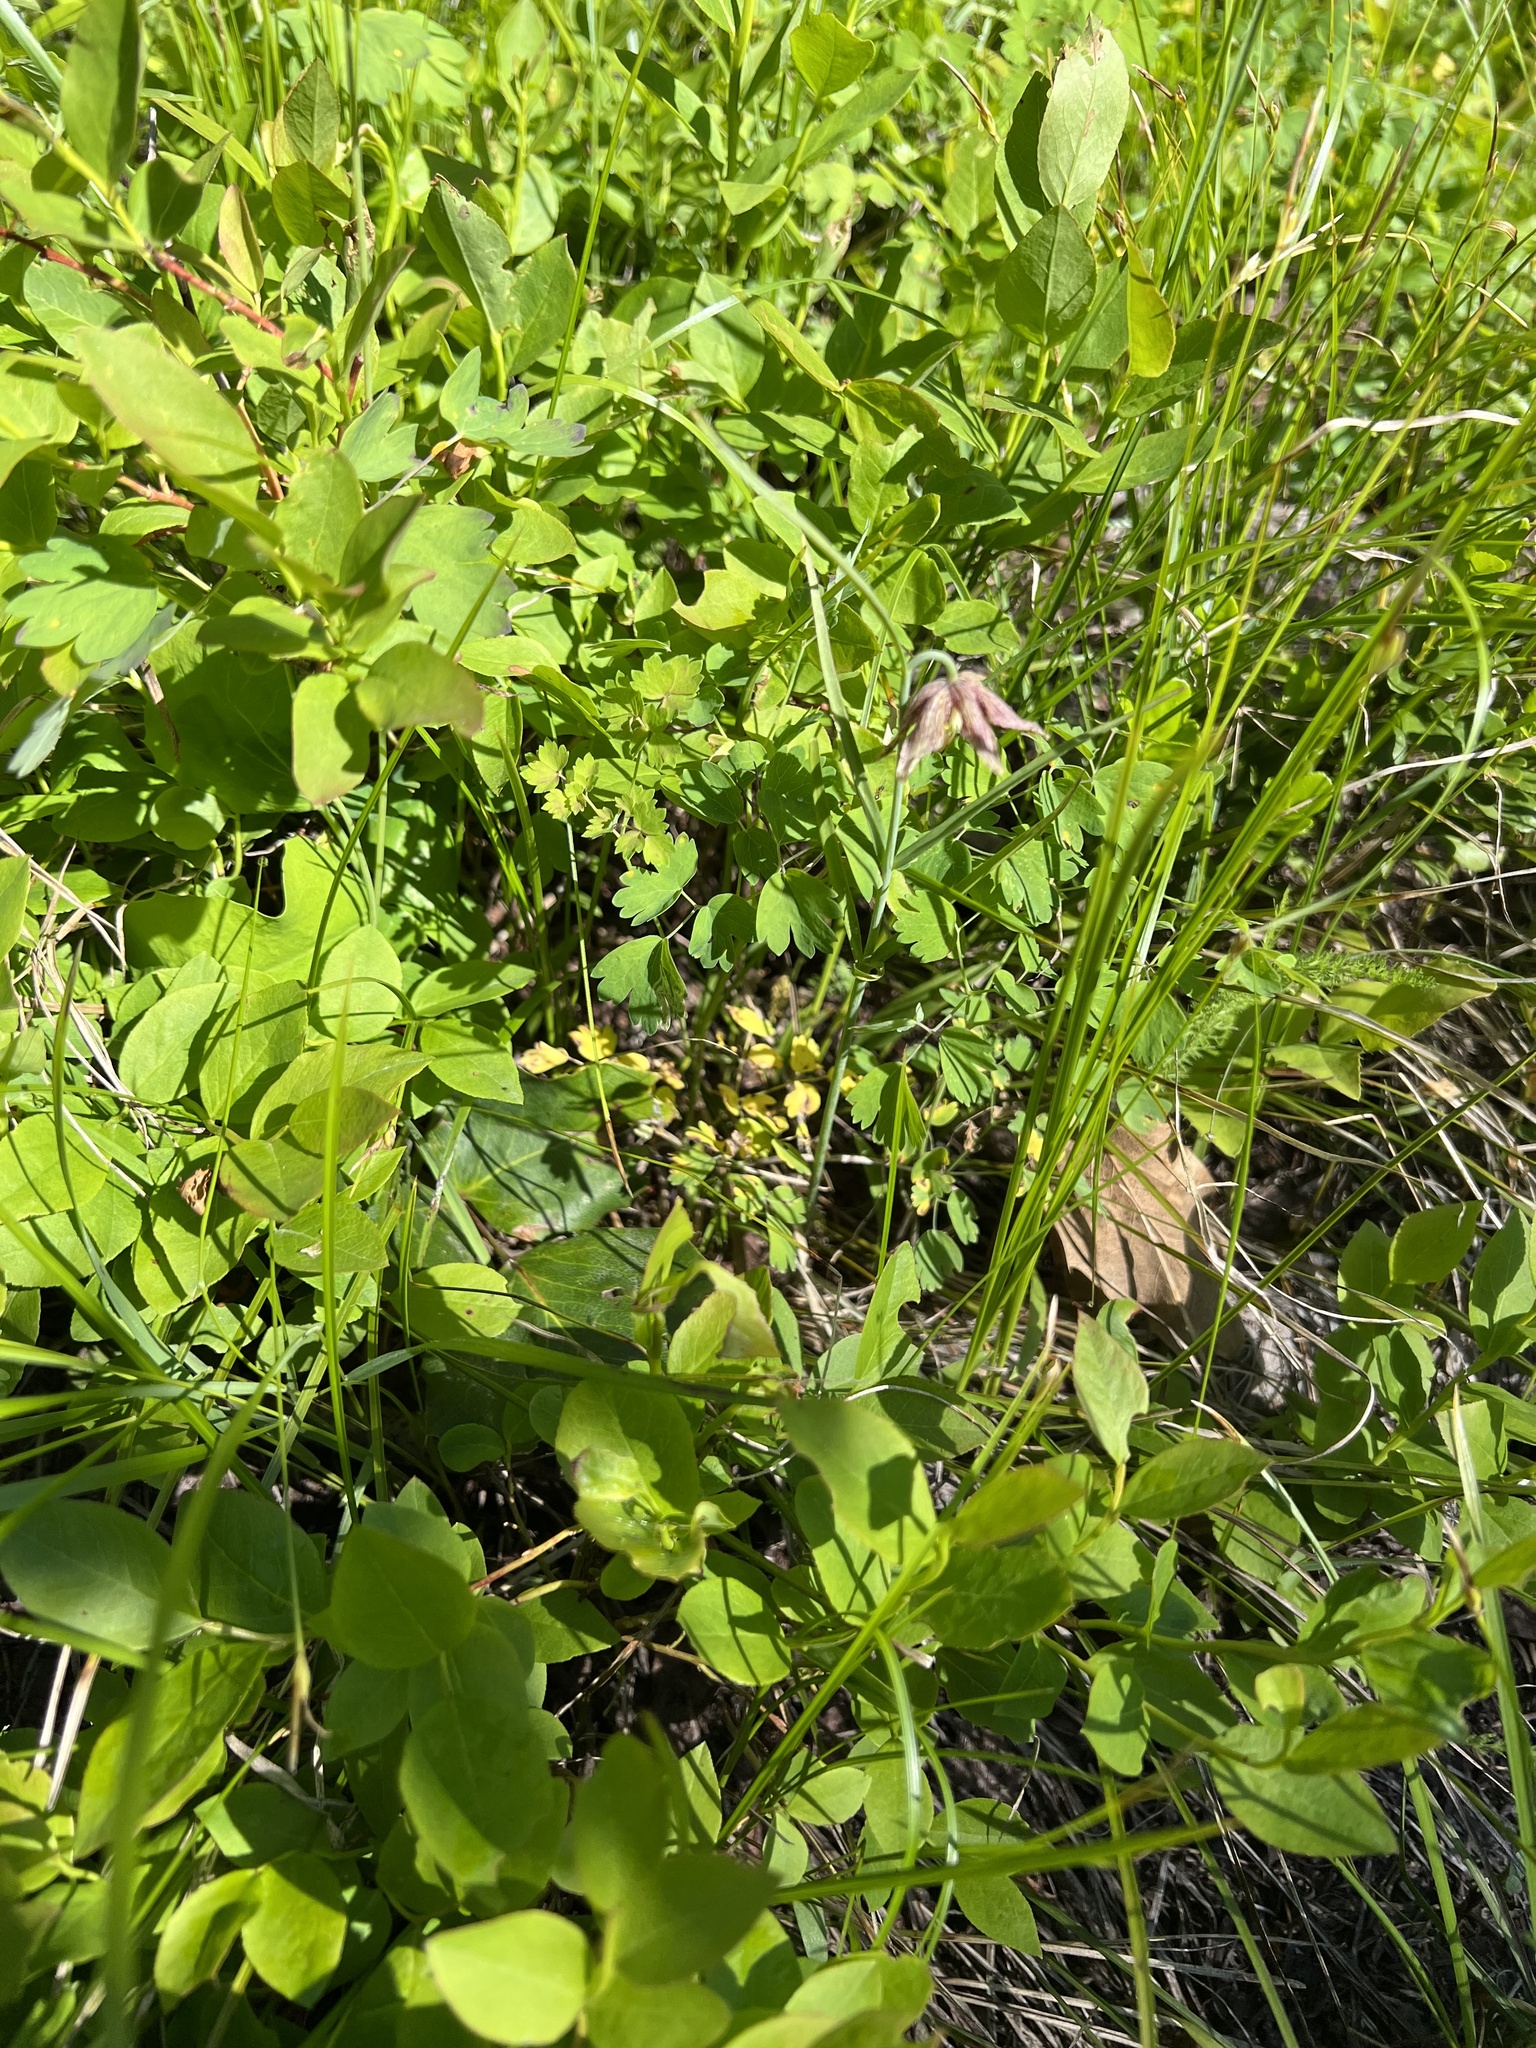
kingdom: Plantae
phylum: Tracheophyta
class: Liliopsida
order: Liliales
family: Liliaceae
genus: Fritillaria
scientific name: Fritillaria atropurpurea
